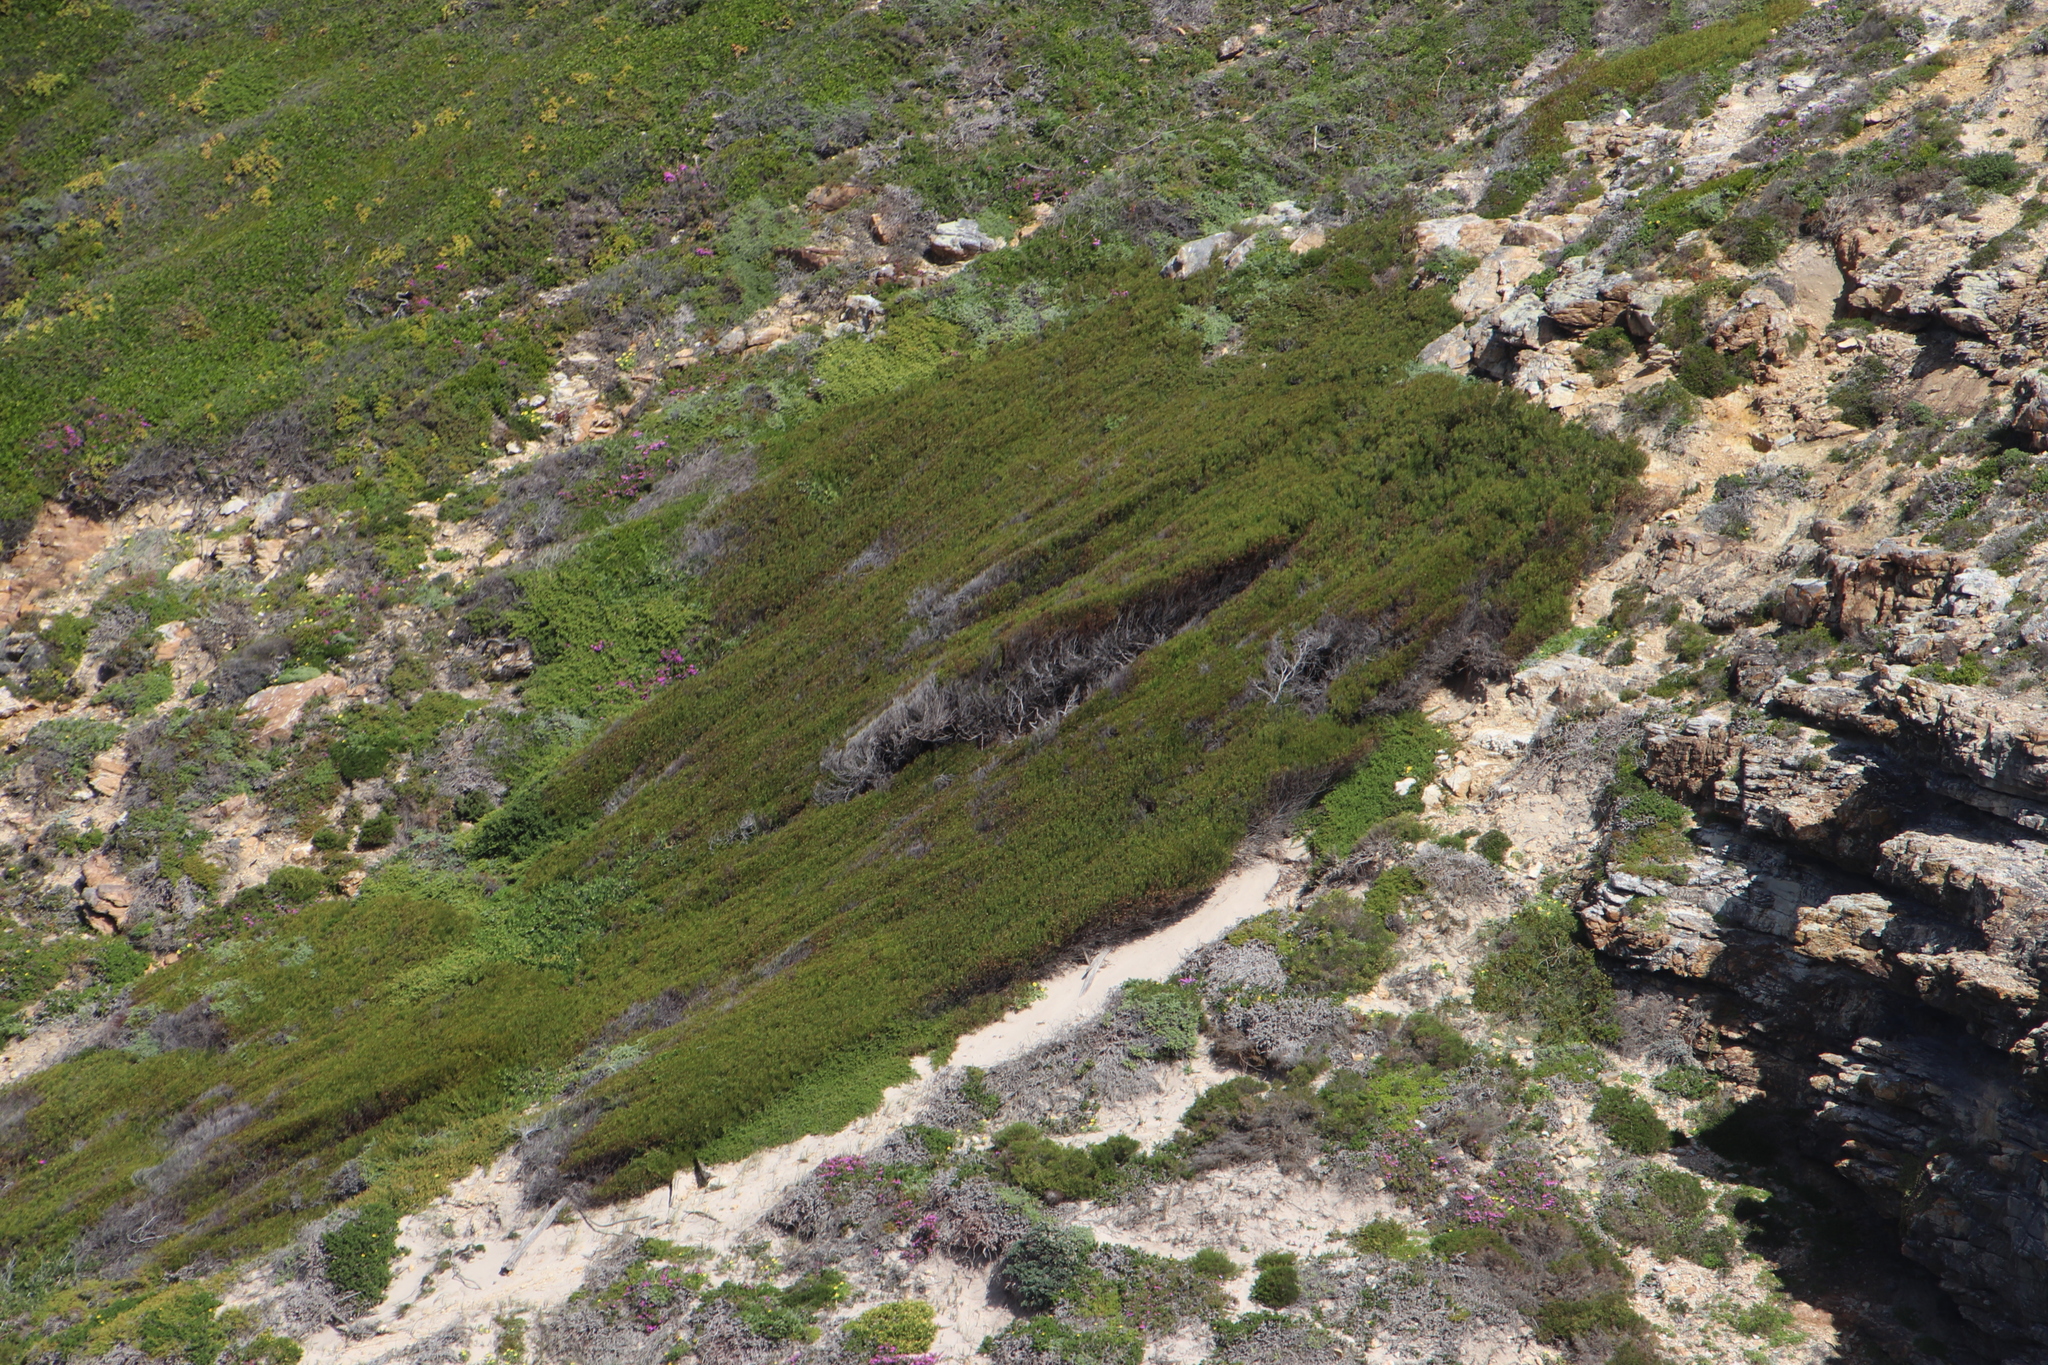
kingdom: Plantae
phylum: Tracheophyta
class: Magnoliopsida
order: Fabales
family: Fabaceae
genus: Acacia
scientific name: Acacia cyclops
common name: Coastal wattle
